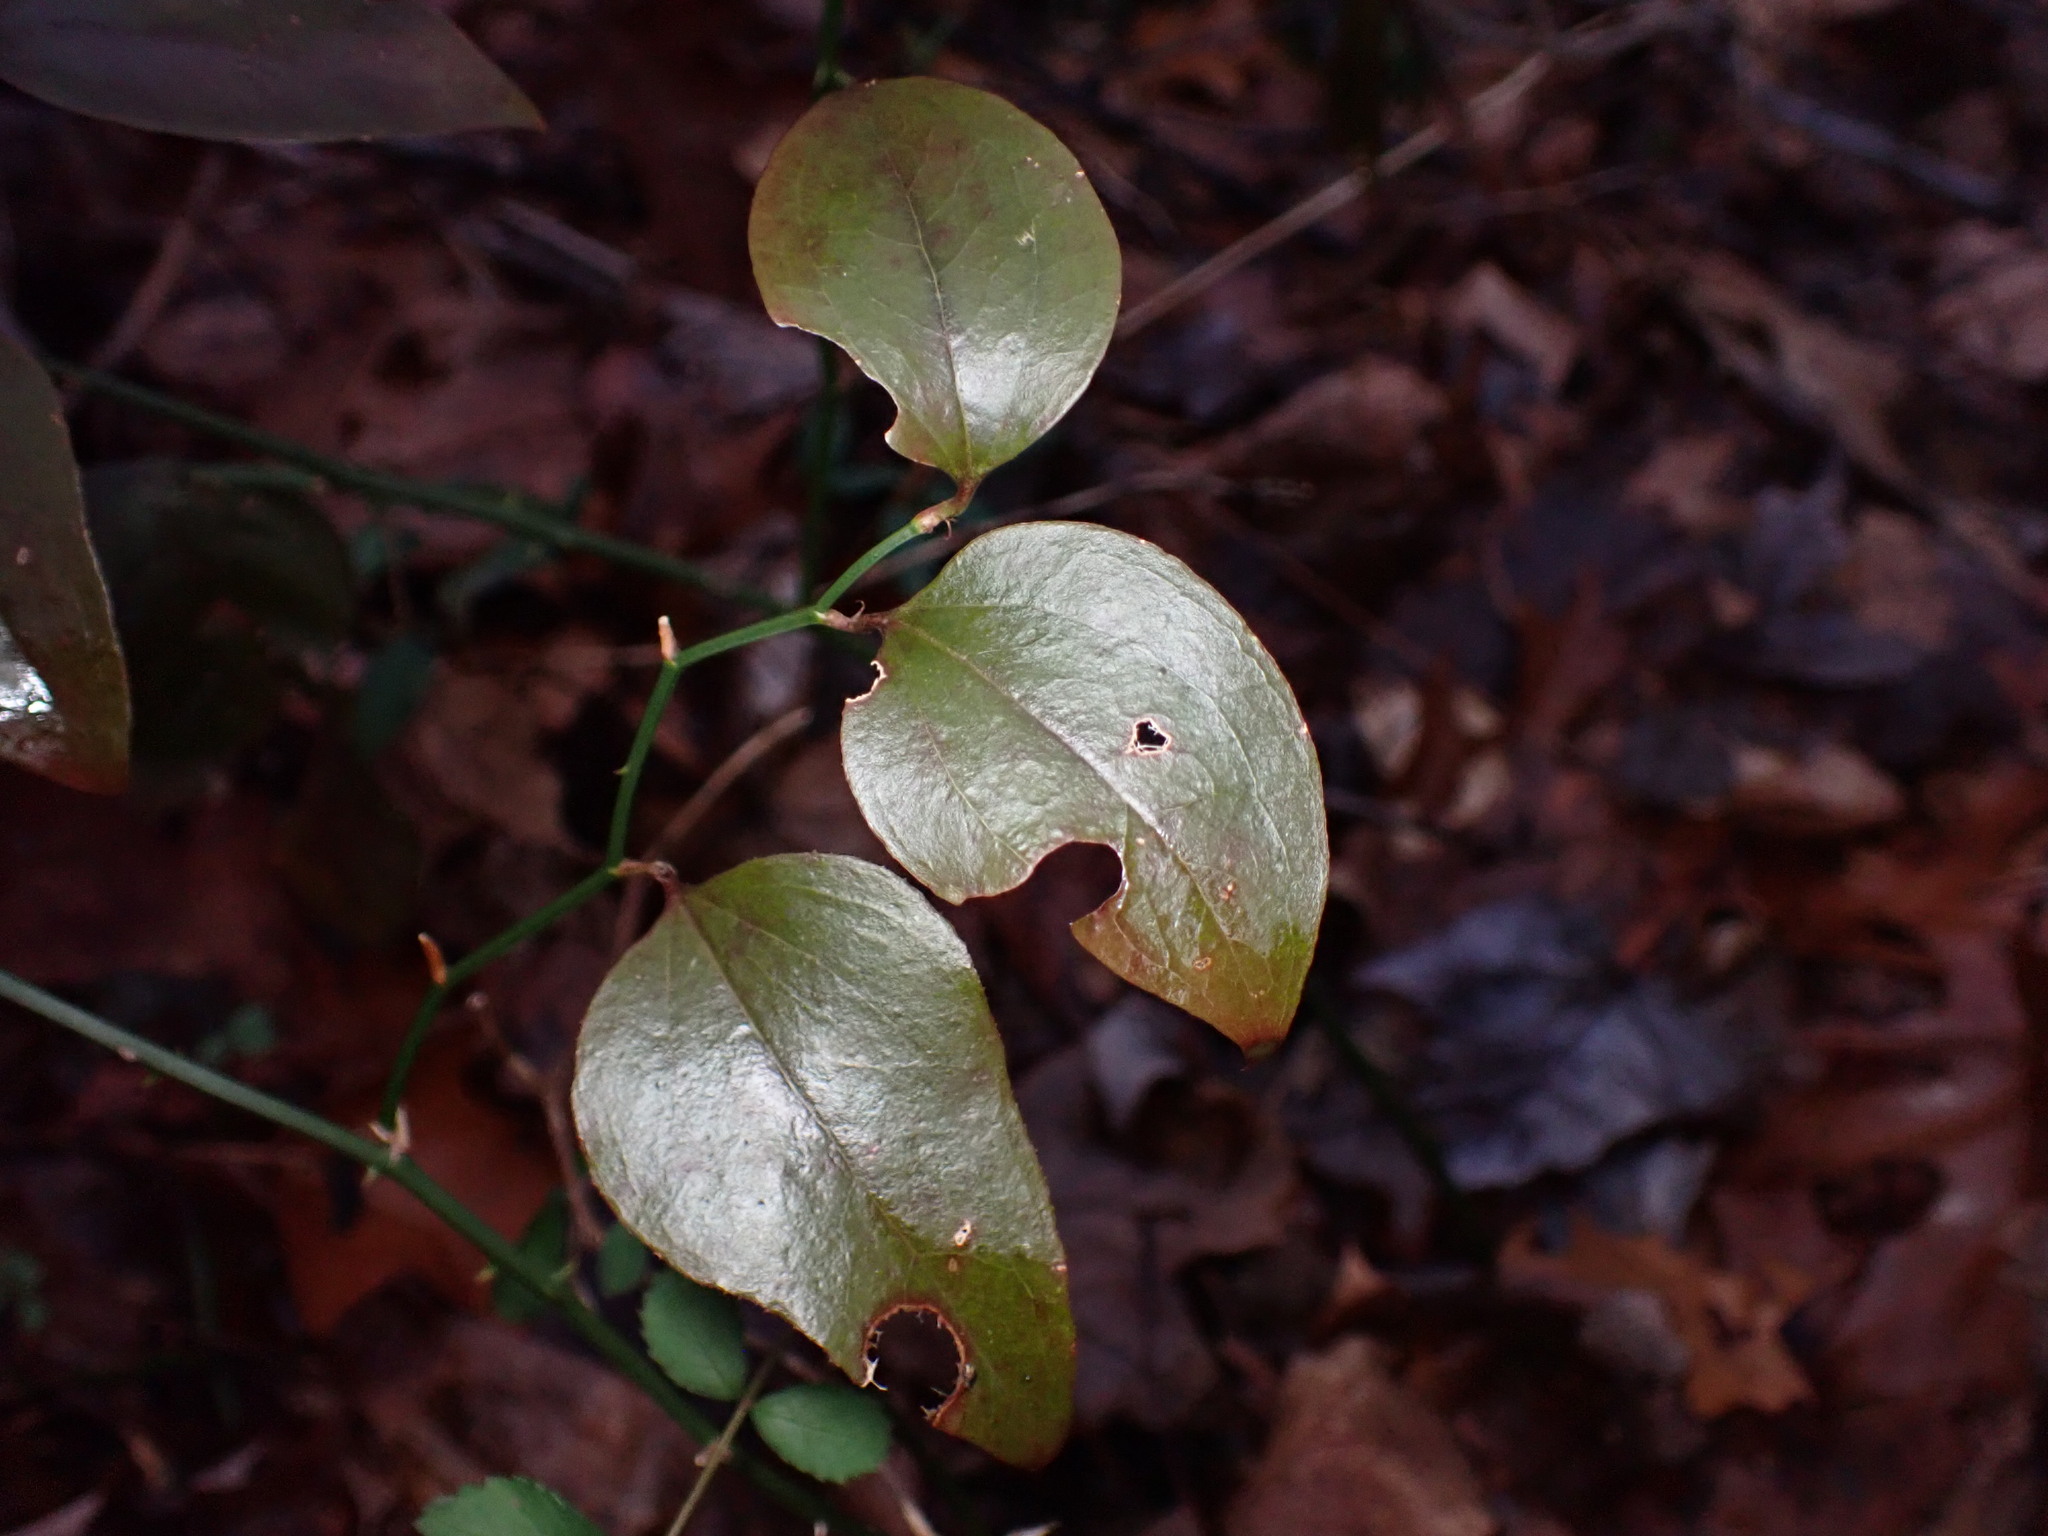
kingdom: Plantae
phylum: Tracheophyta
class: Liliopsida
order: Liliales
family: Smilacaceae
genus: Smilax
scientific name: Smilax rotundifolia
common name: Bullbriar
